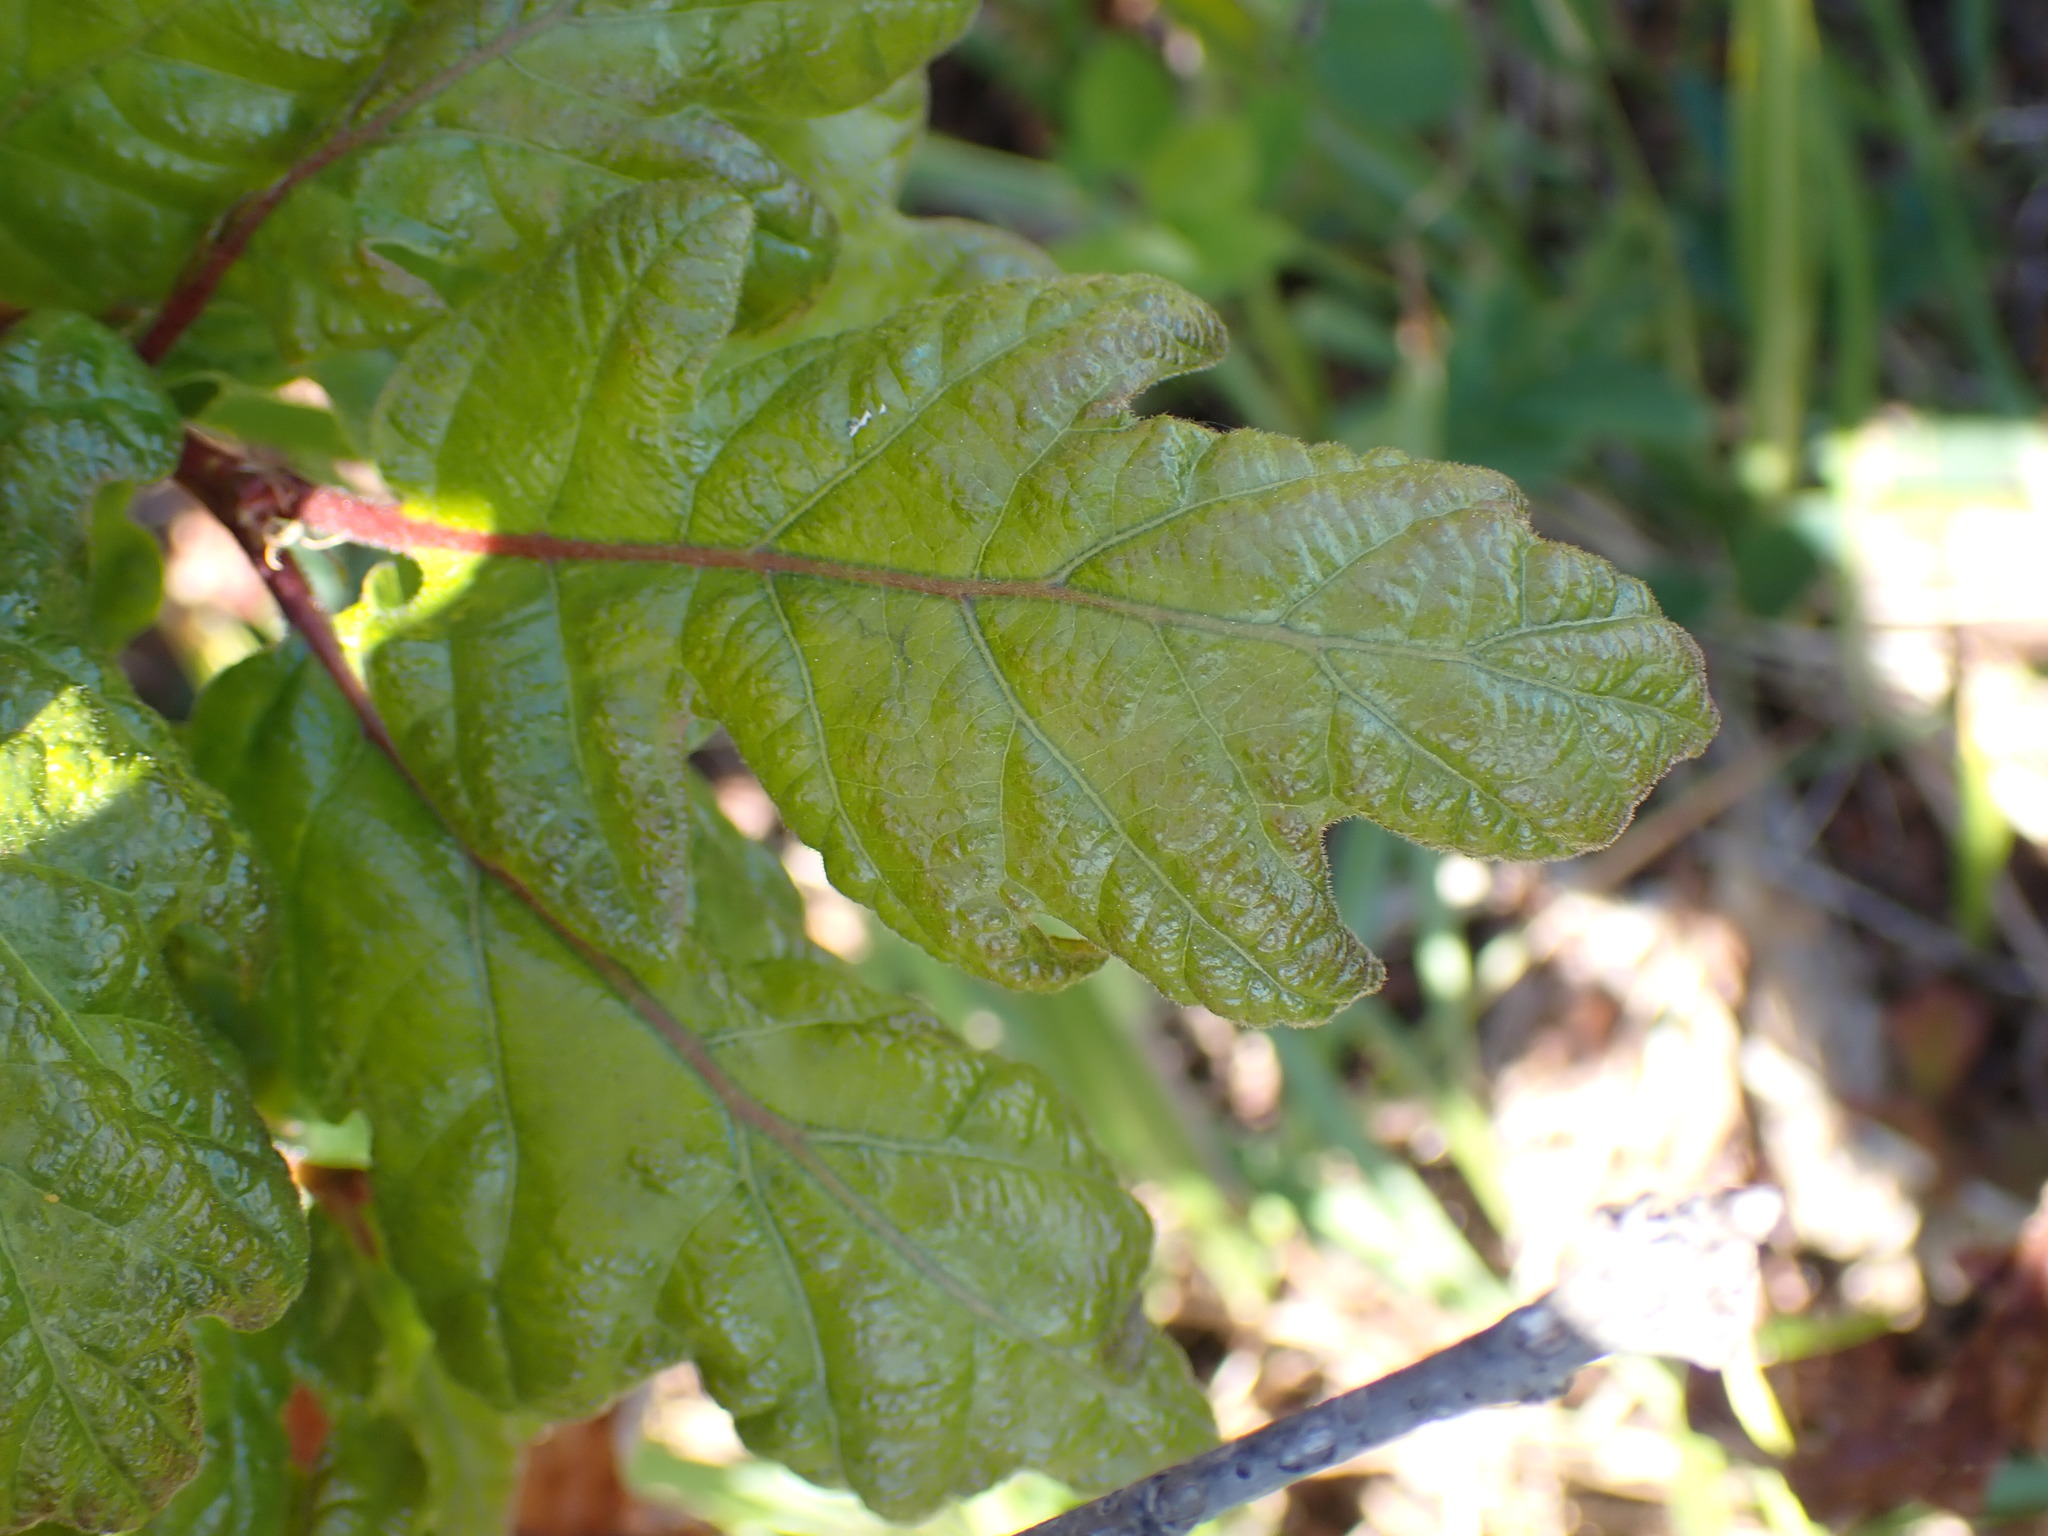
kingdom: Plantae
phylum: Tracheophyta
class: Magnoliopsida
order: Fagales
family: Fagaceae
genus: Quercus
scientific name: Quercus garryana
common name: Garry oak
